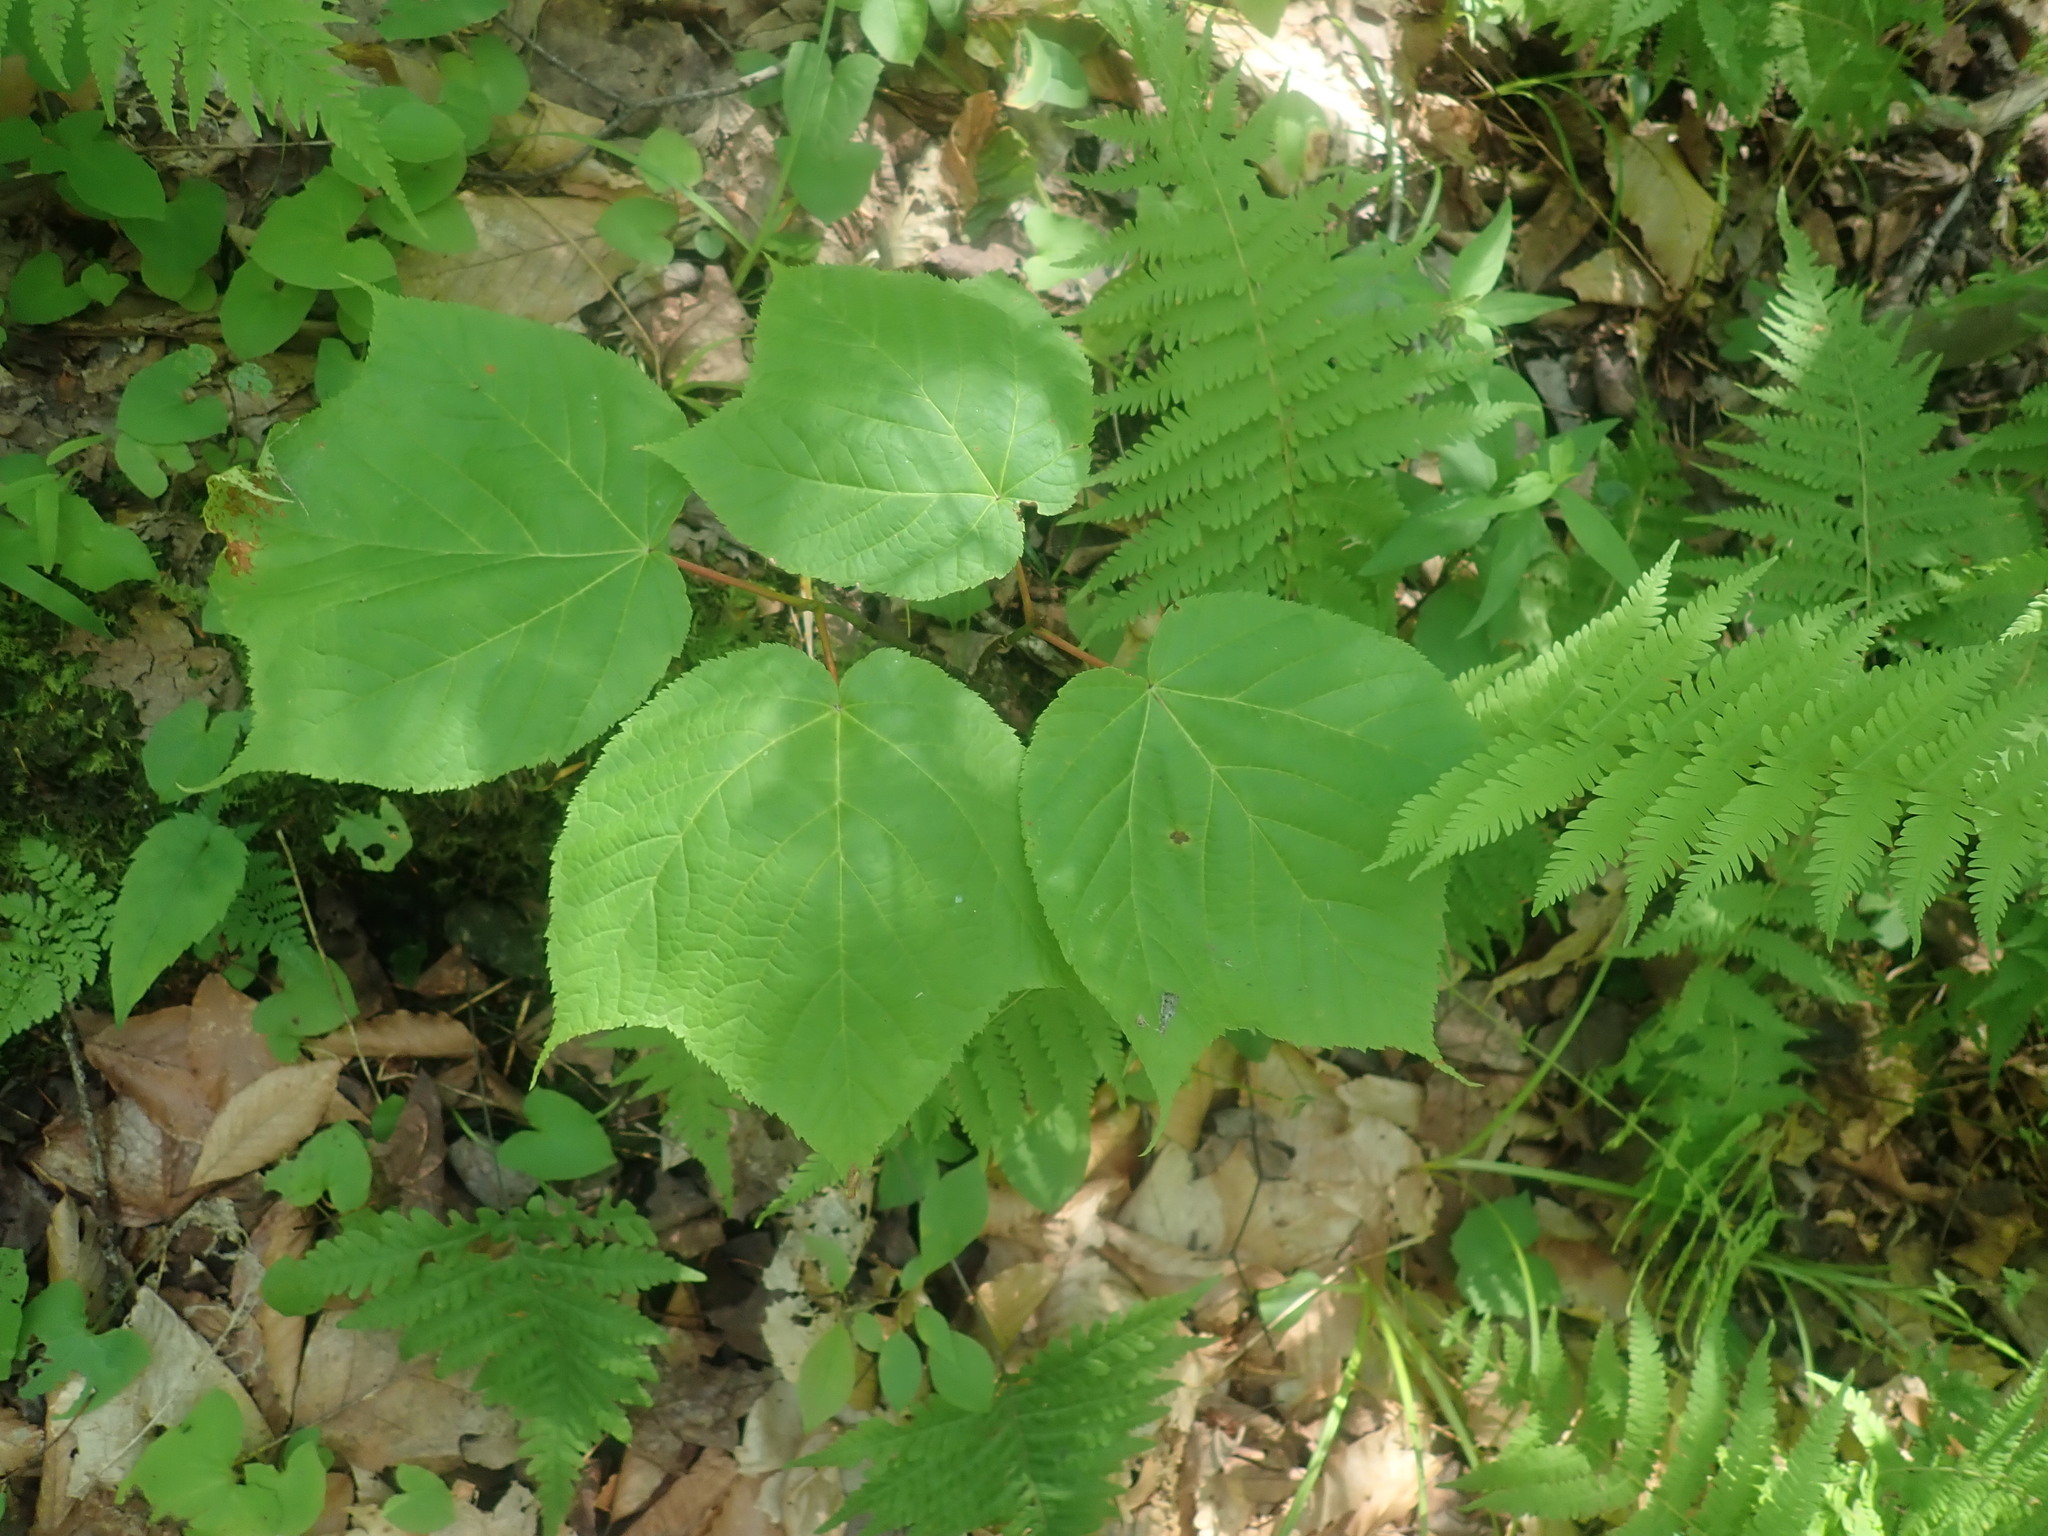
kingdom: Plantae
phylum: Tracheophyta
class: Magnoliopsida
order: Sapindales
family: Sapindaceae
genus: Acer
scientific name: Acer pensylvanicum
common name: Moosewood
